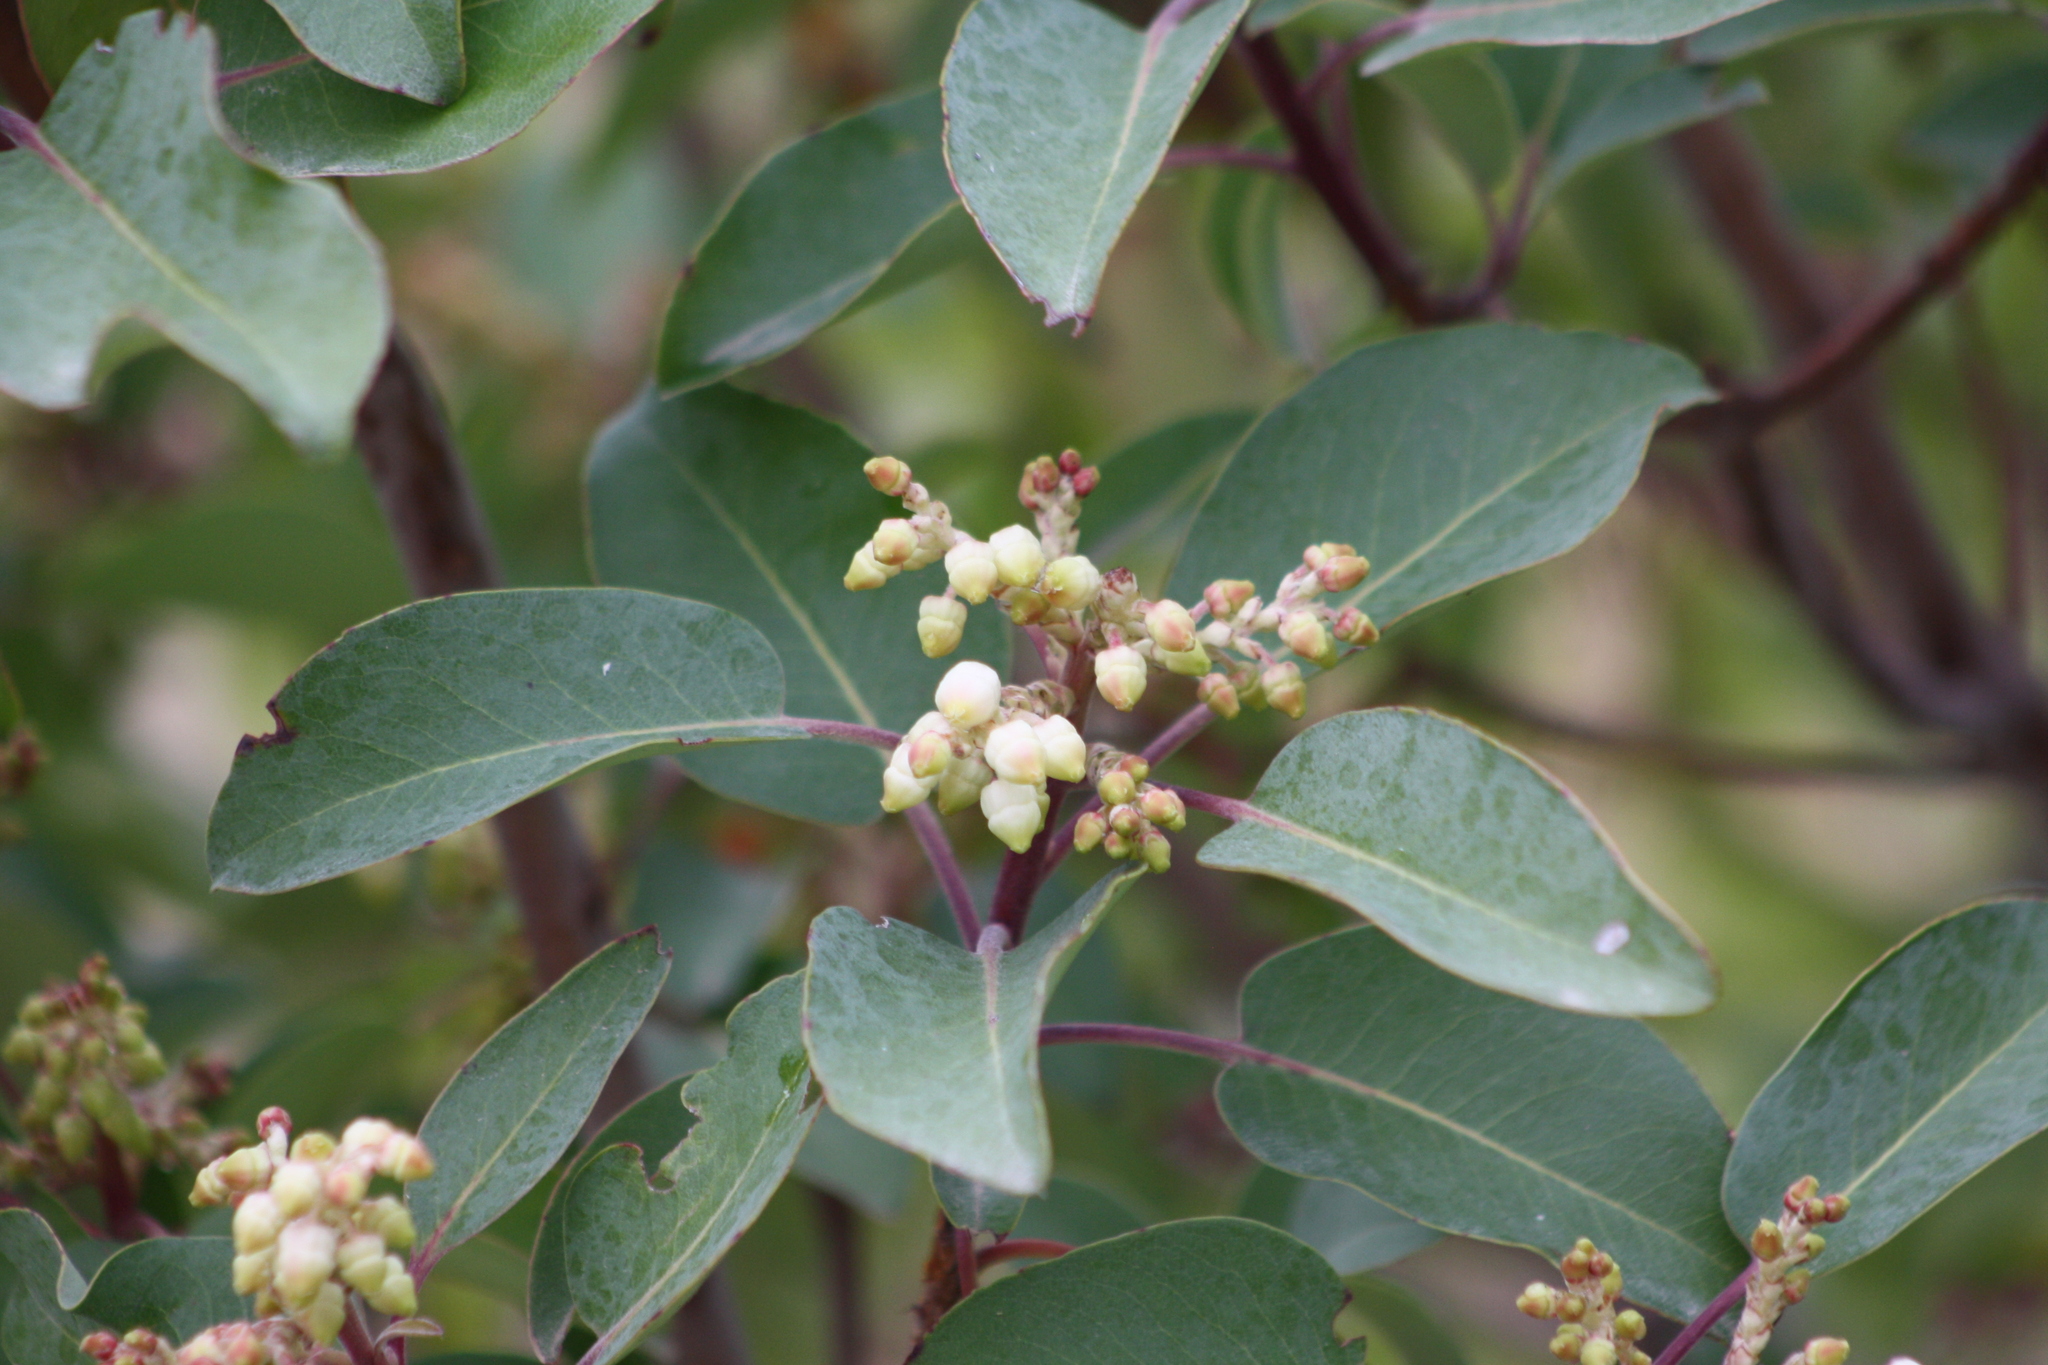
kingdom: Plantae
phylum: Tracheophyta
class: Magnoliopsida
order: Ericales
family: Ericaceae
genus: Arbutus
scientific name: Arbutus xalapensis
